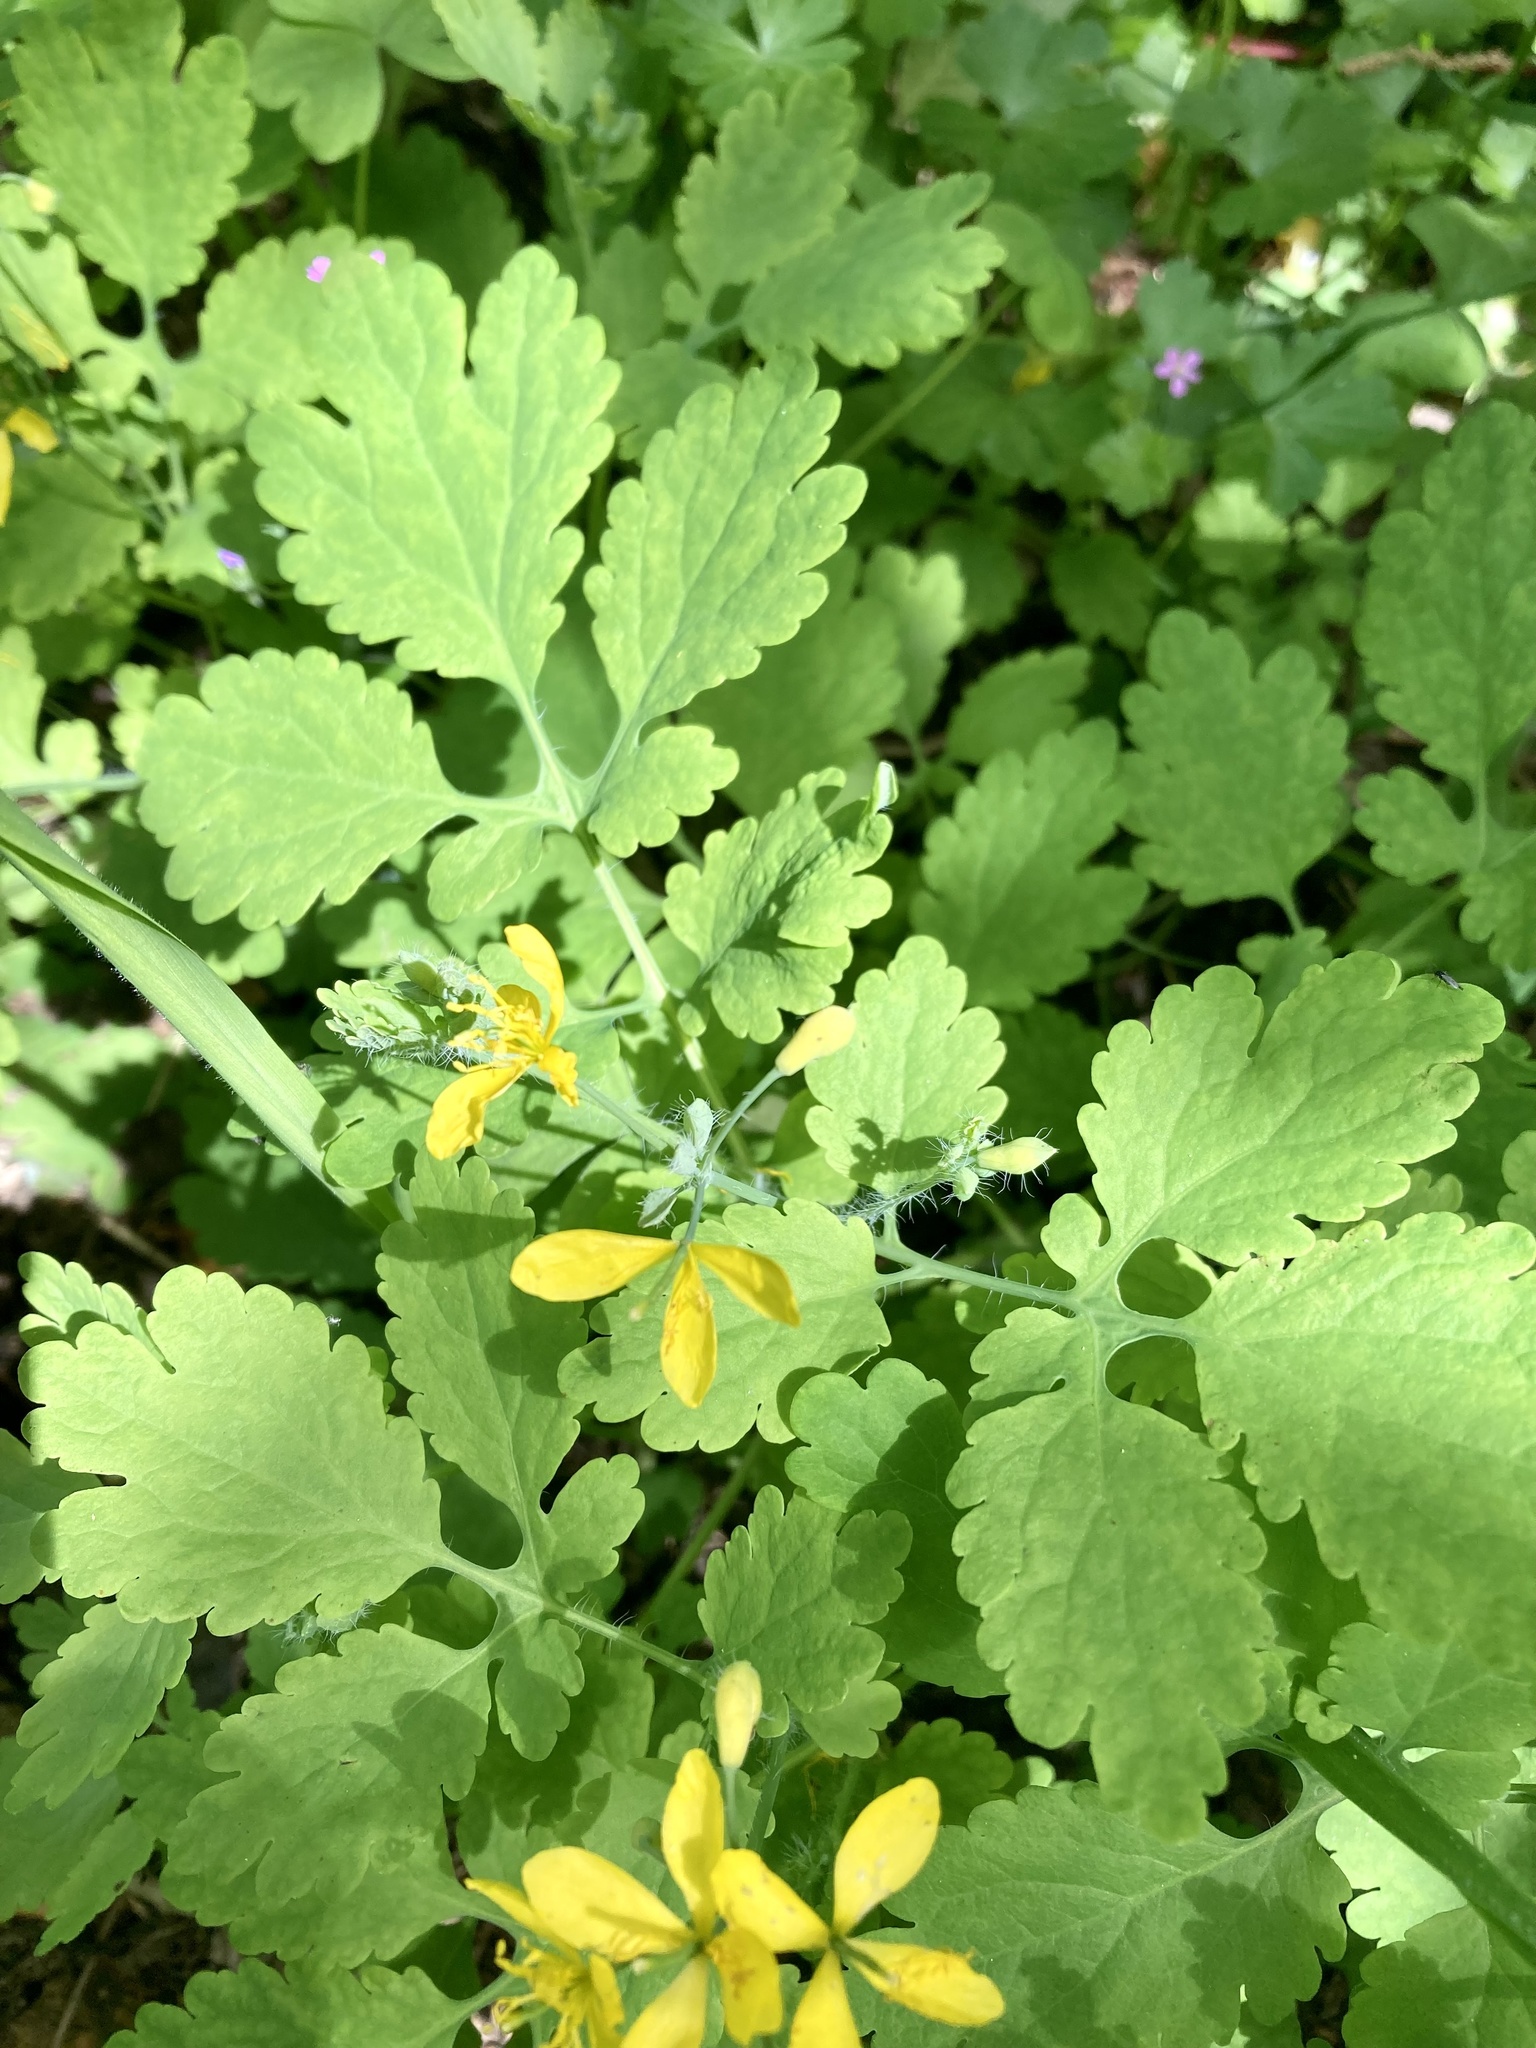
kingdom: Plantae
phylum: Tracheophyta
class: Magnoliopsida
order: Ranunculales
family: Papaveraceae
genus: Chelidonium
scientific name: Chelidonium majus
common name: Greater celandine
